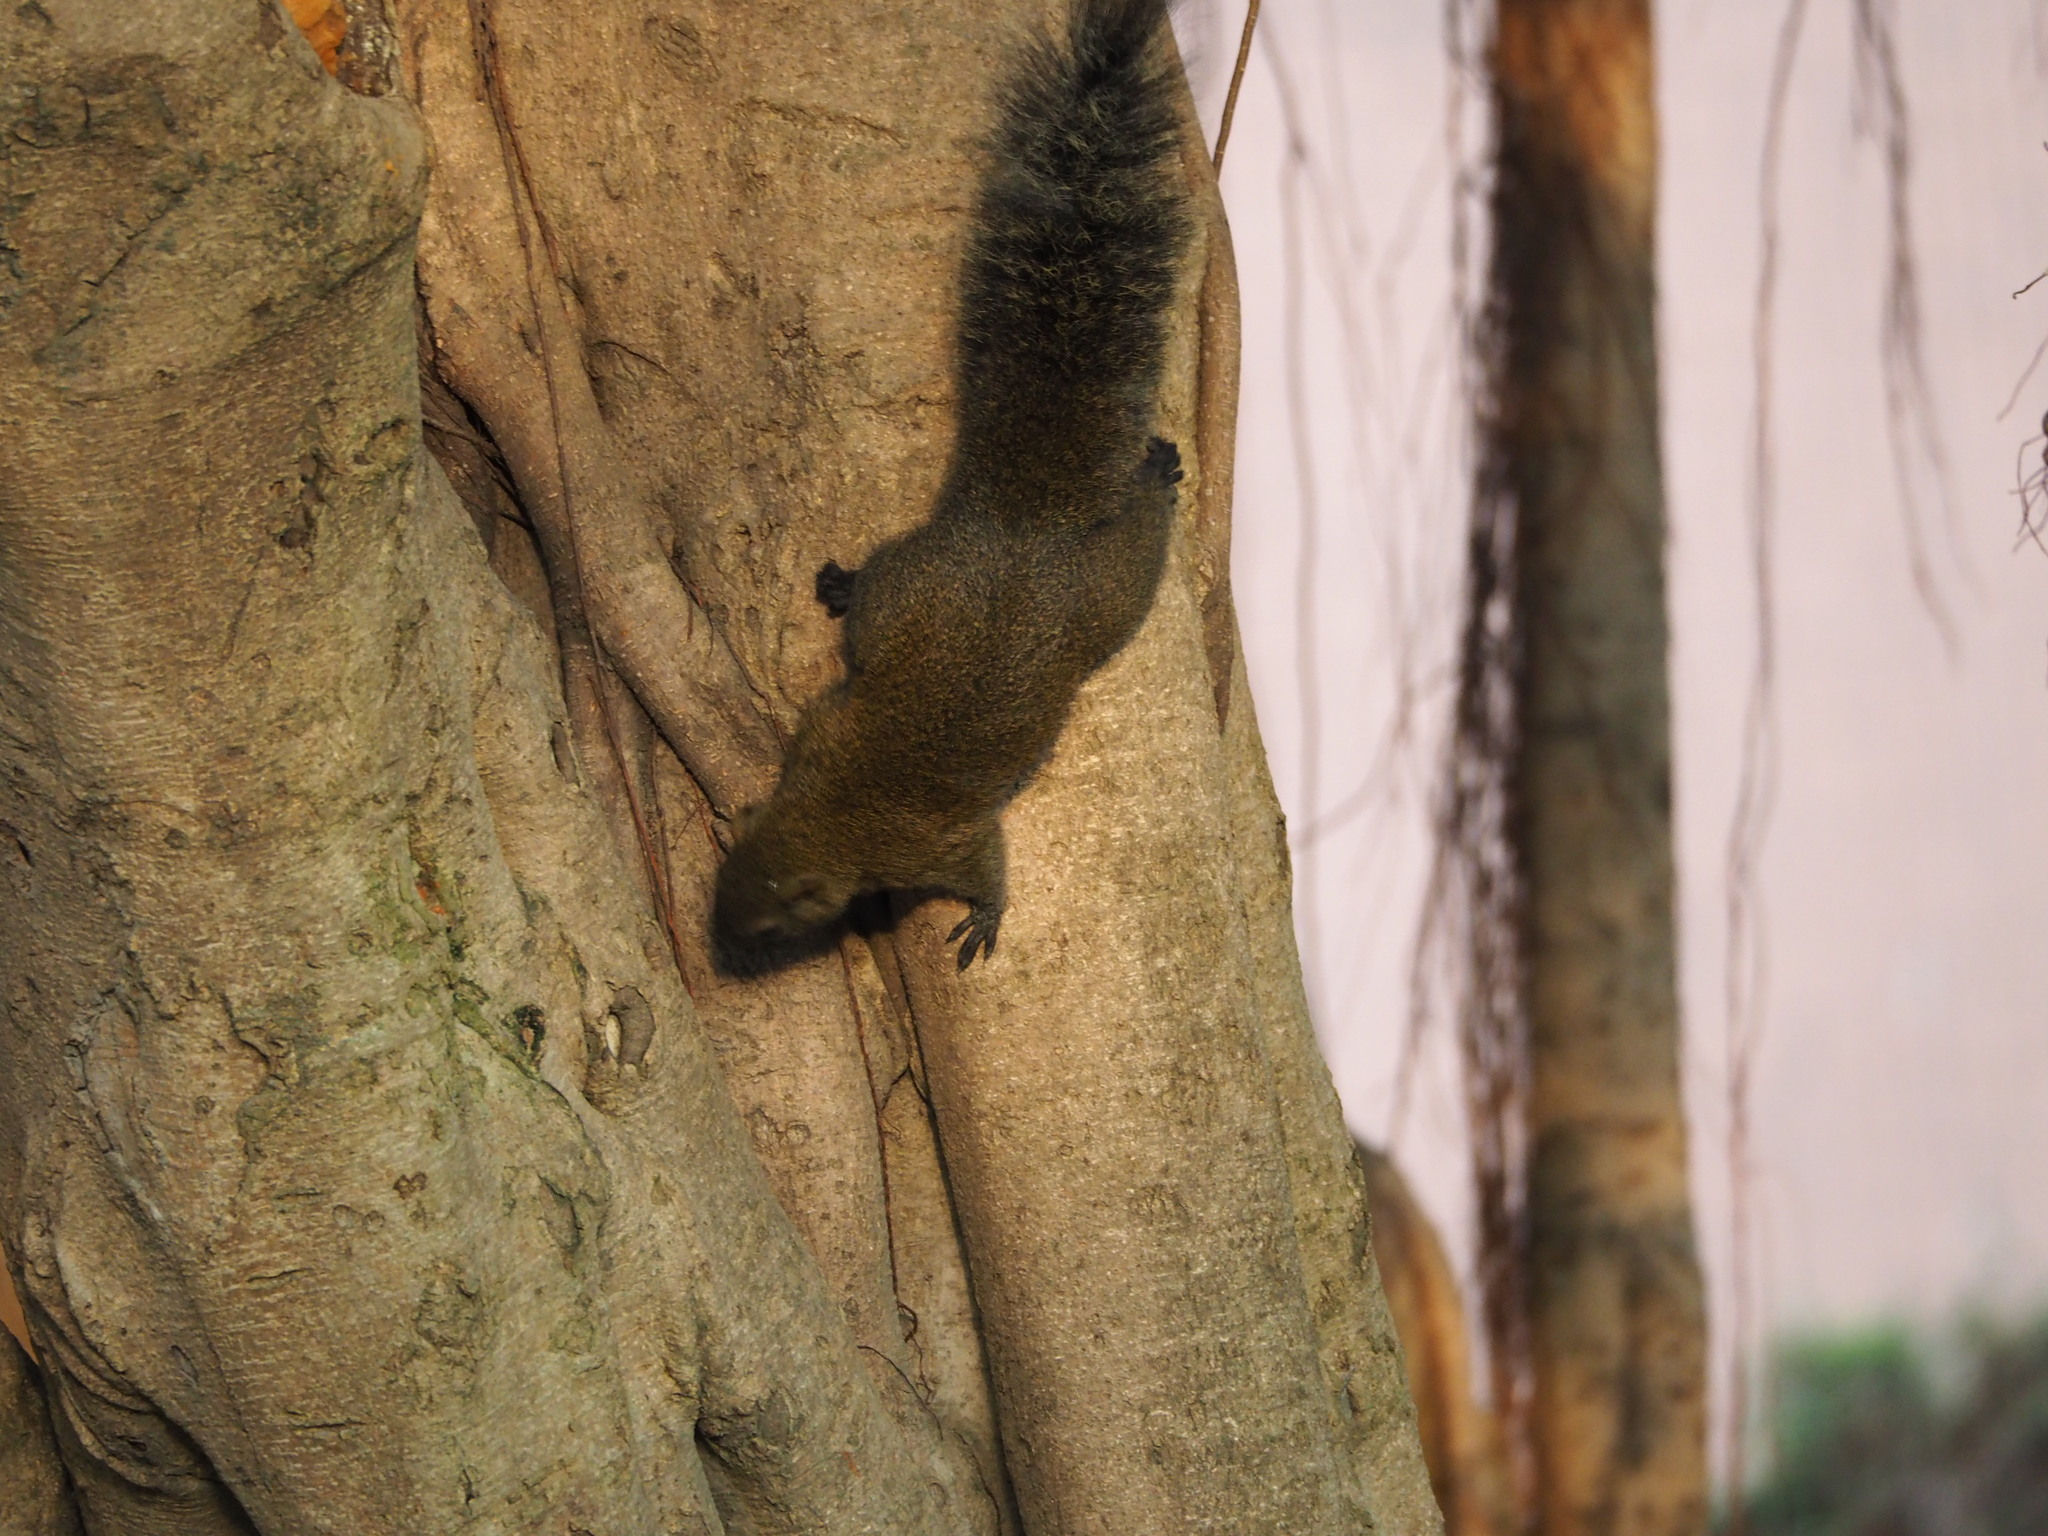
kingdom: Animalia
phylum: Chordata
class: Mammalia
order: Rodentia
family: Sciuridae
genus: Callosciurus
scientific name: Callosciurus erythraeus
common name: Pallas's squirrel
